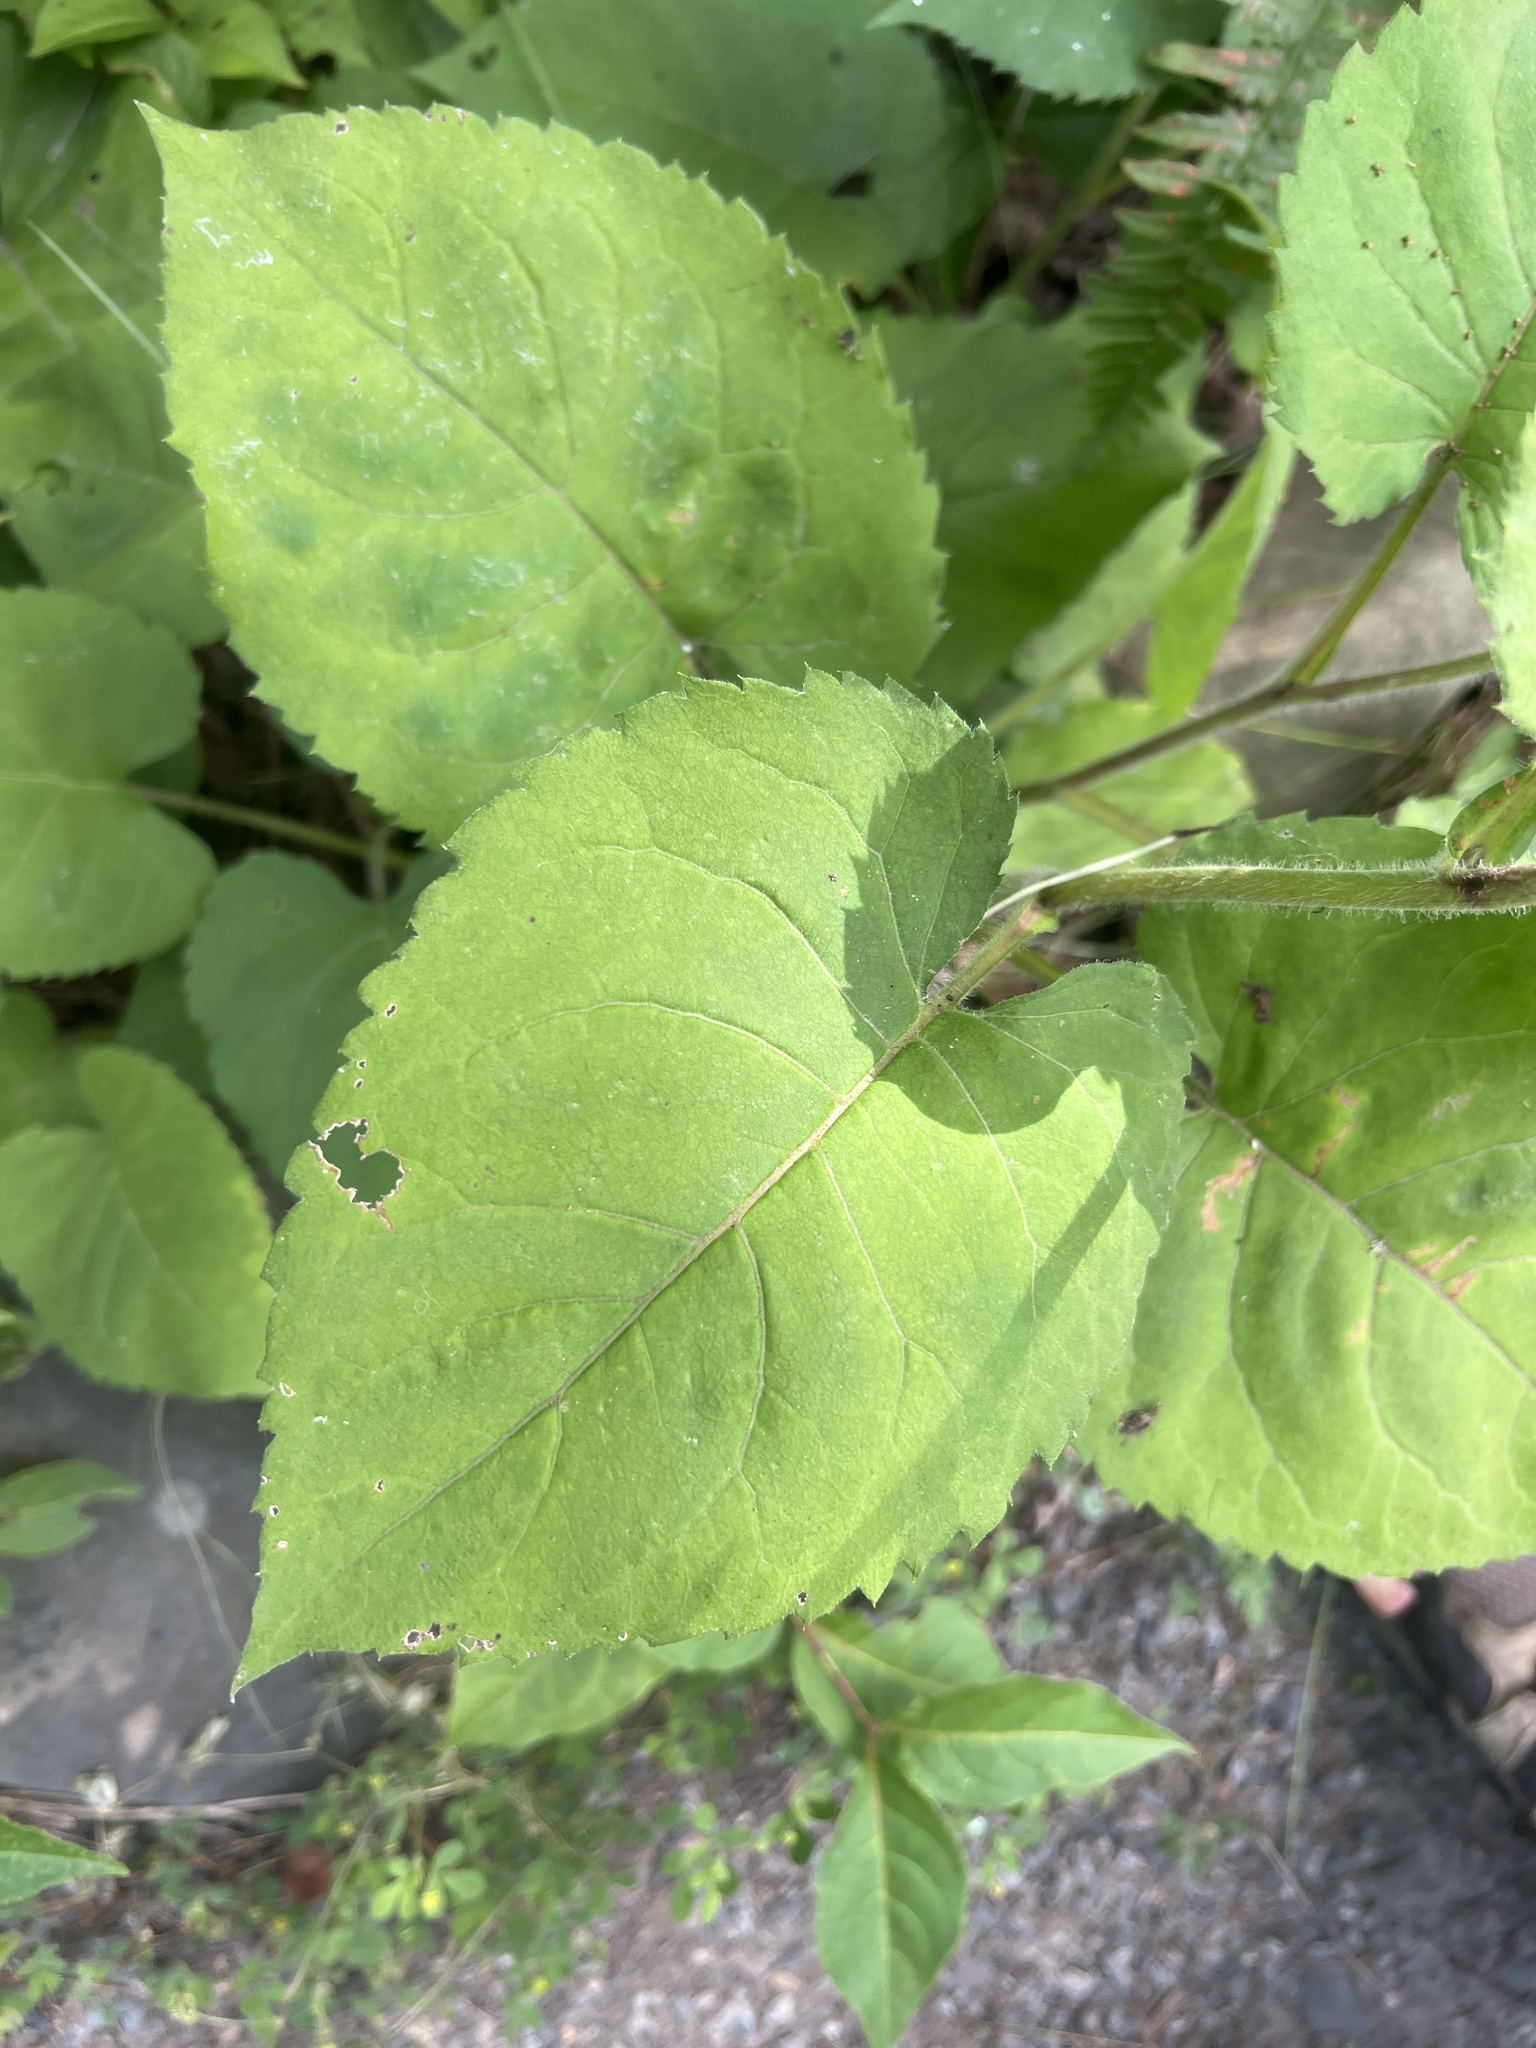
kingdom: Plantae
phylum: Tracheophyta
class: Magnoliopsida
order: Asterales
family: Asteraceae
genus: Eurybia
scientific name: Eurybia macrophylla
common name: Big-leaved aster
